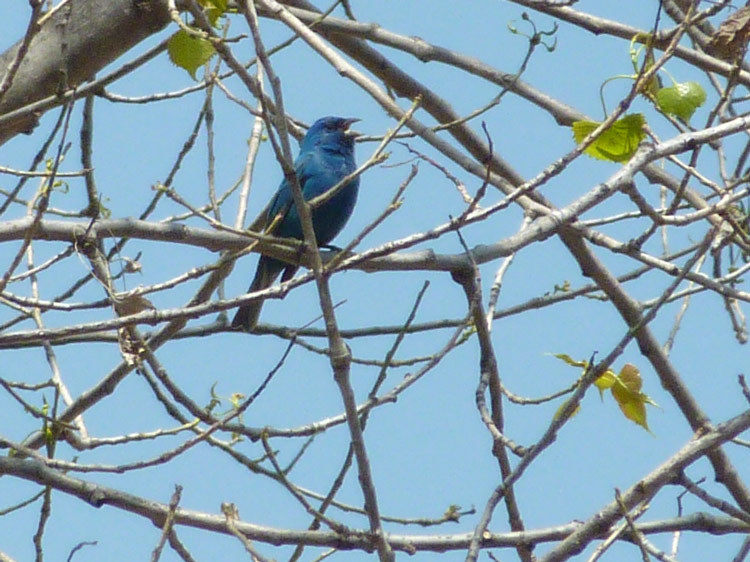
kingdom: Animalia
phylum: Chordata
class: Aves
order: Passeriformes
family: Cardinalidae
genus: Passerina
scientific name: Passerina cyanea
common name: Indigo bunting
